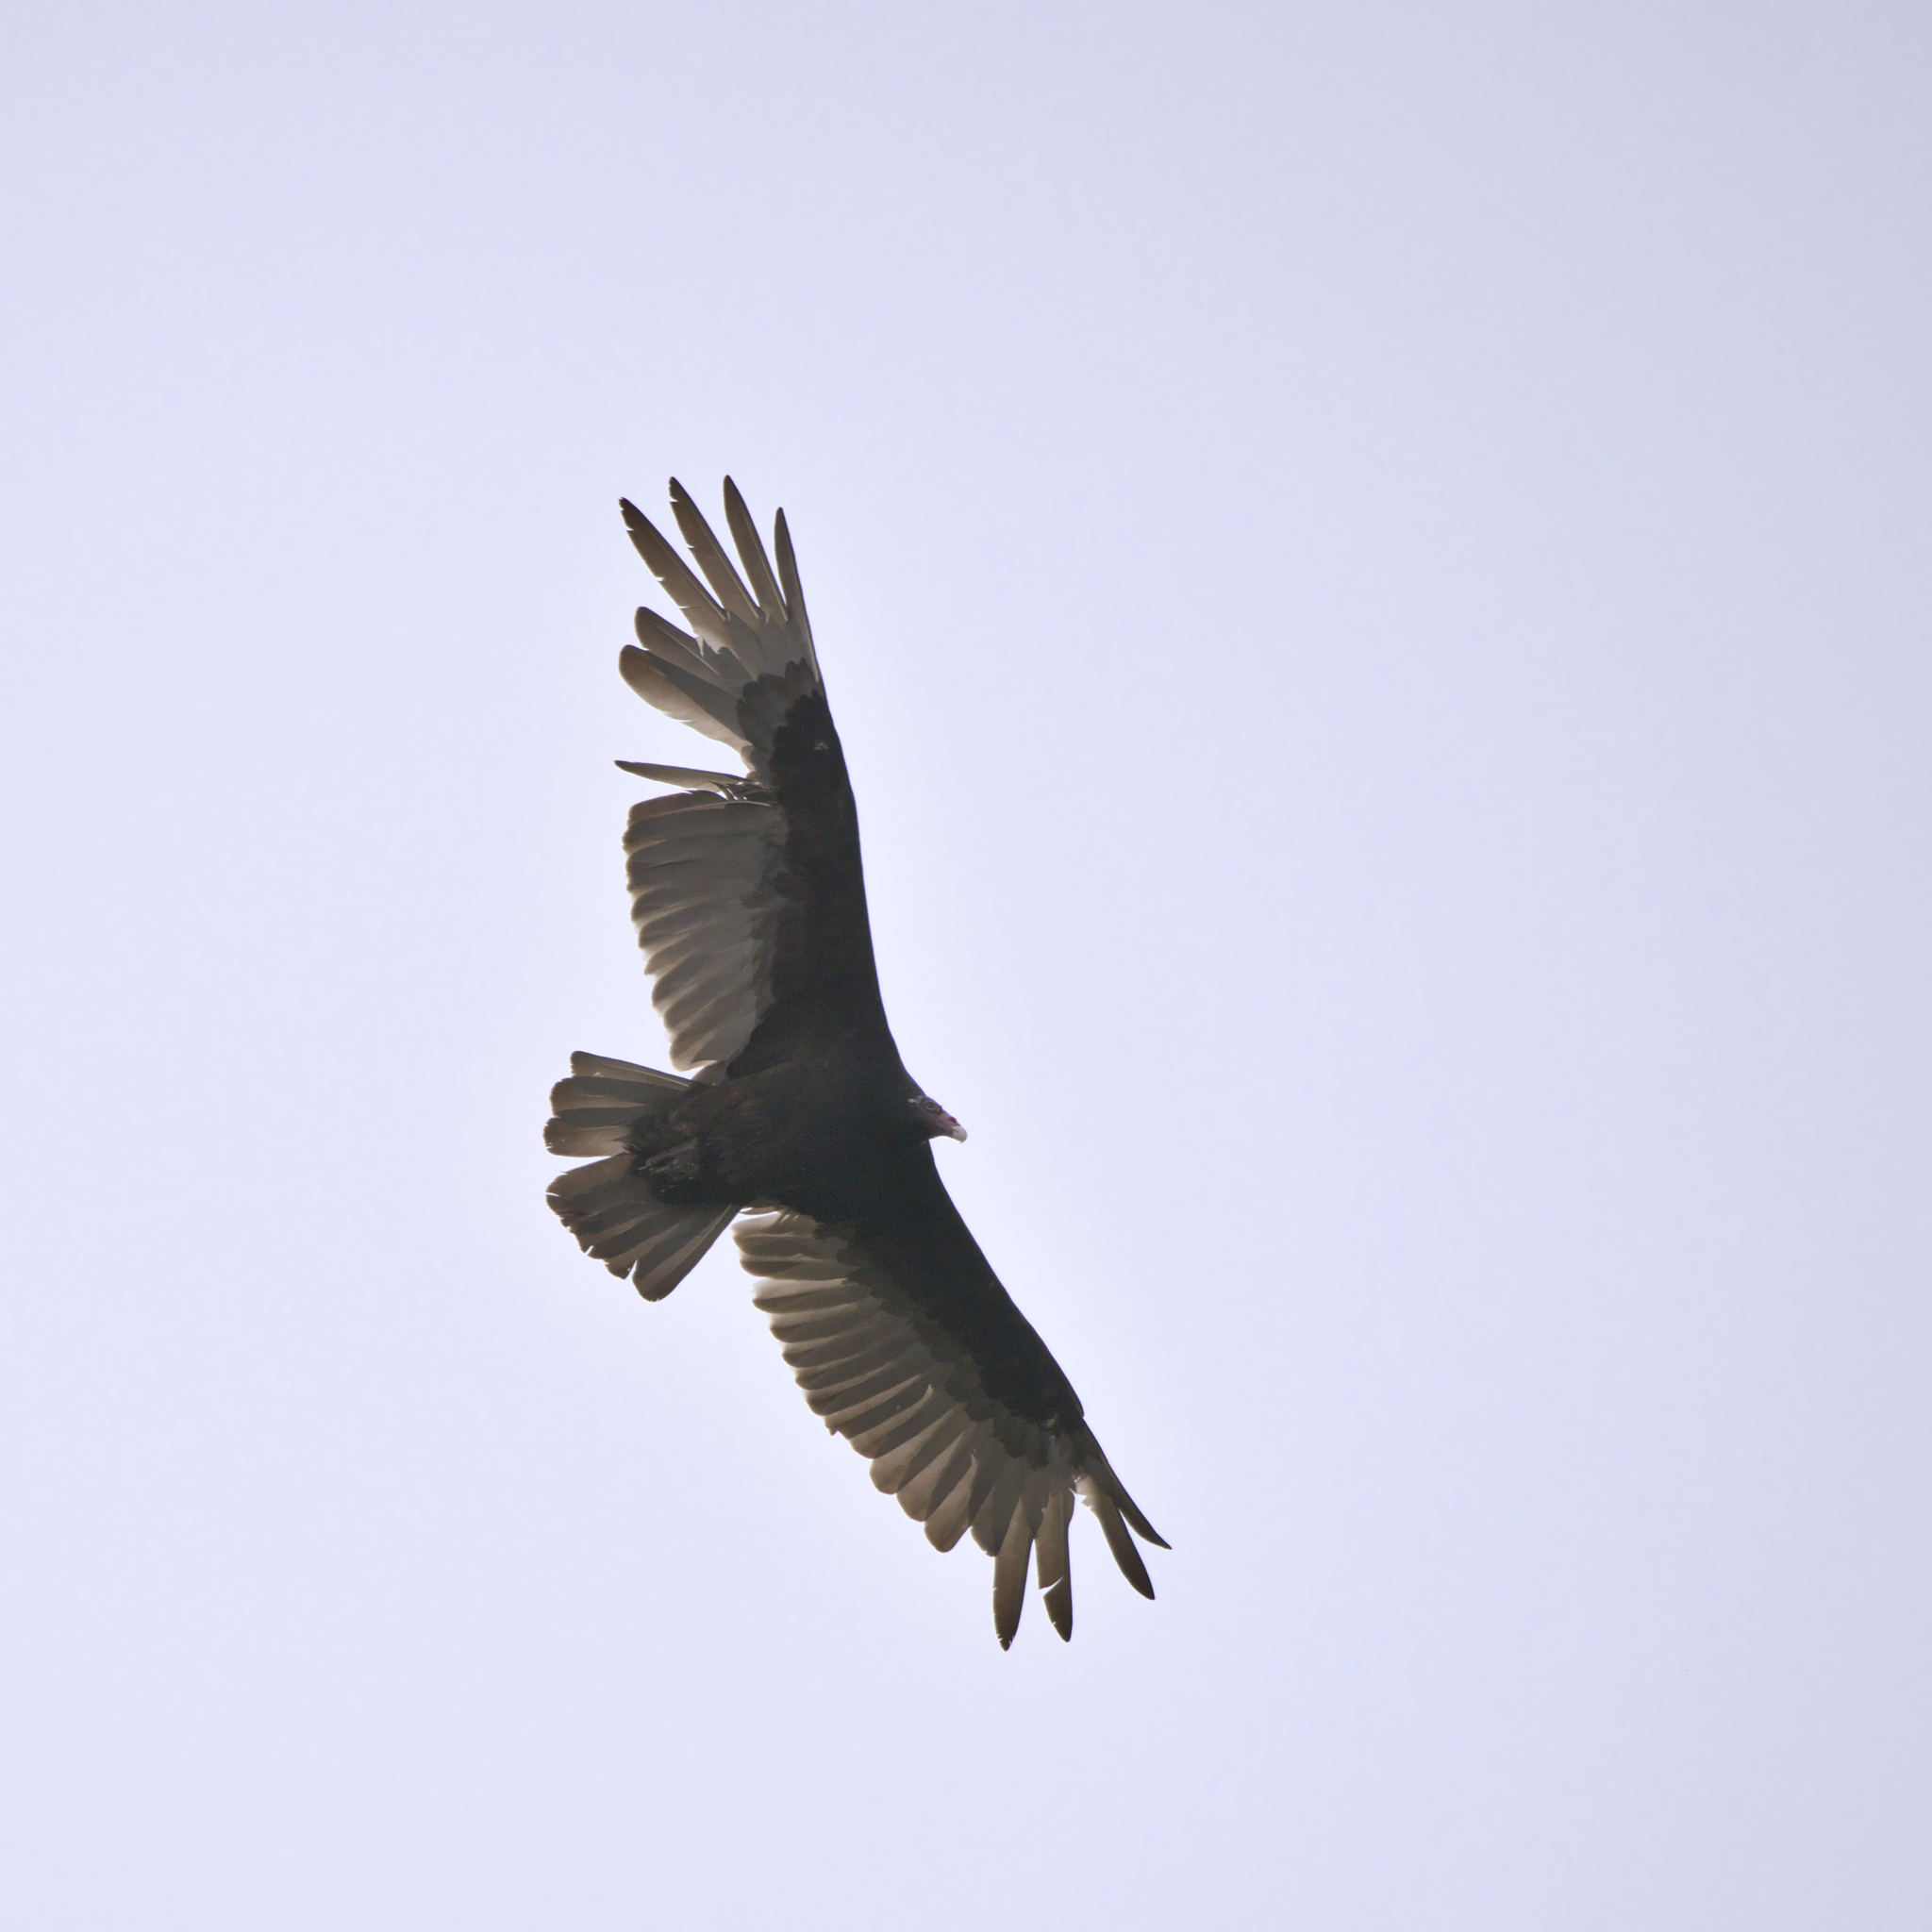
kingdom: Animalia
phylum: Chordata
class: Aves
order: Accipitriformes
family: Cathartidae
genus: Cathartes
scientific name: Cathartes aura
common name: Turkey vulture
